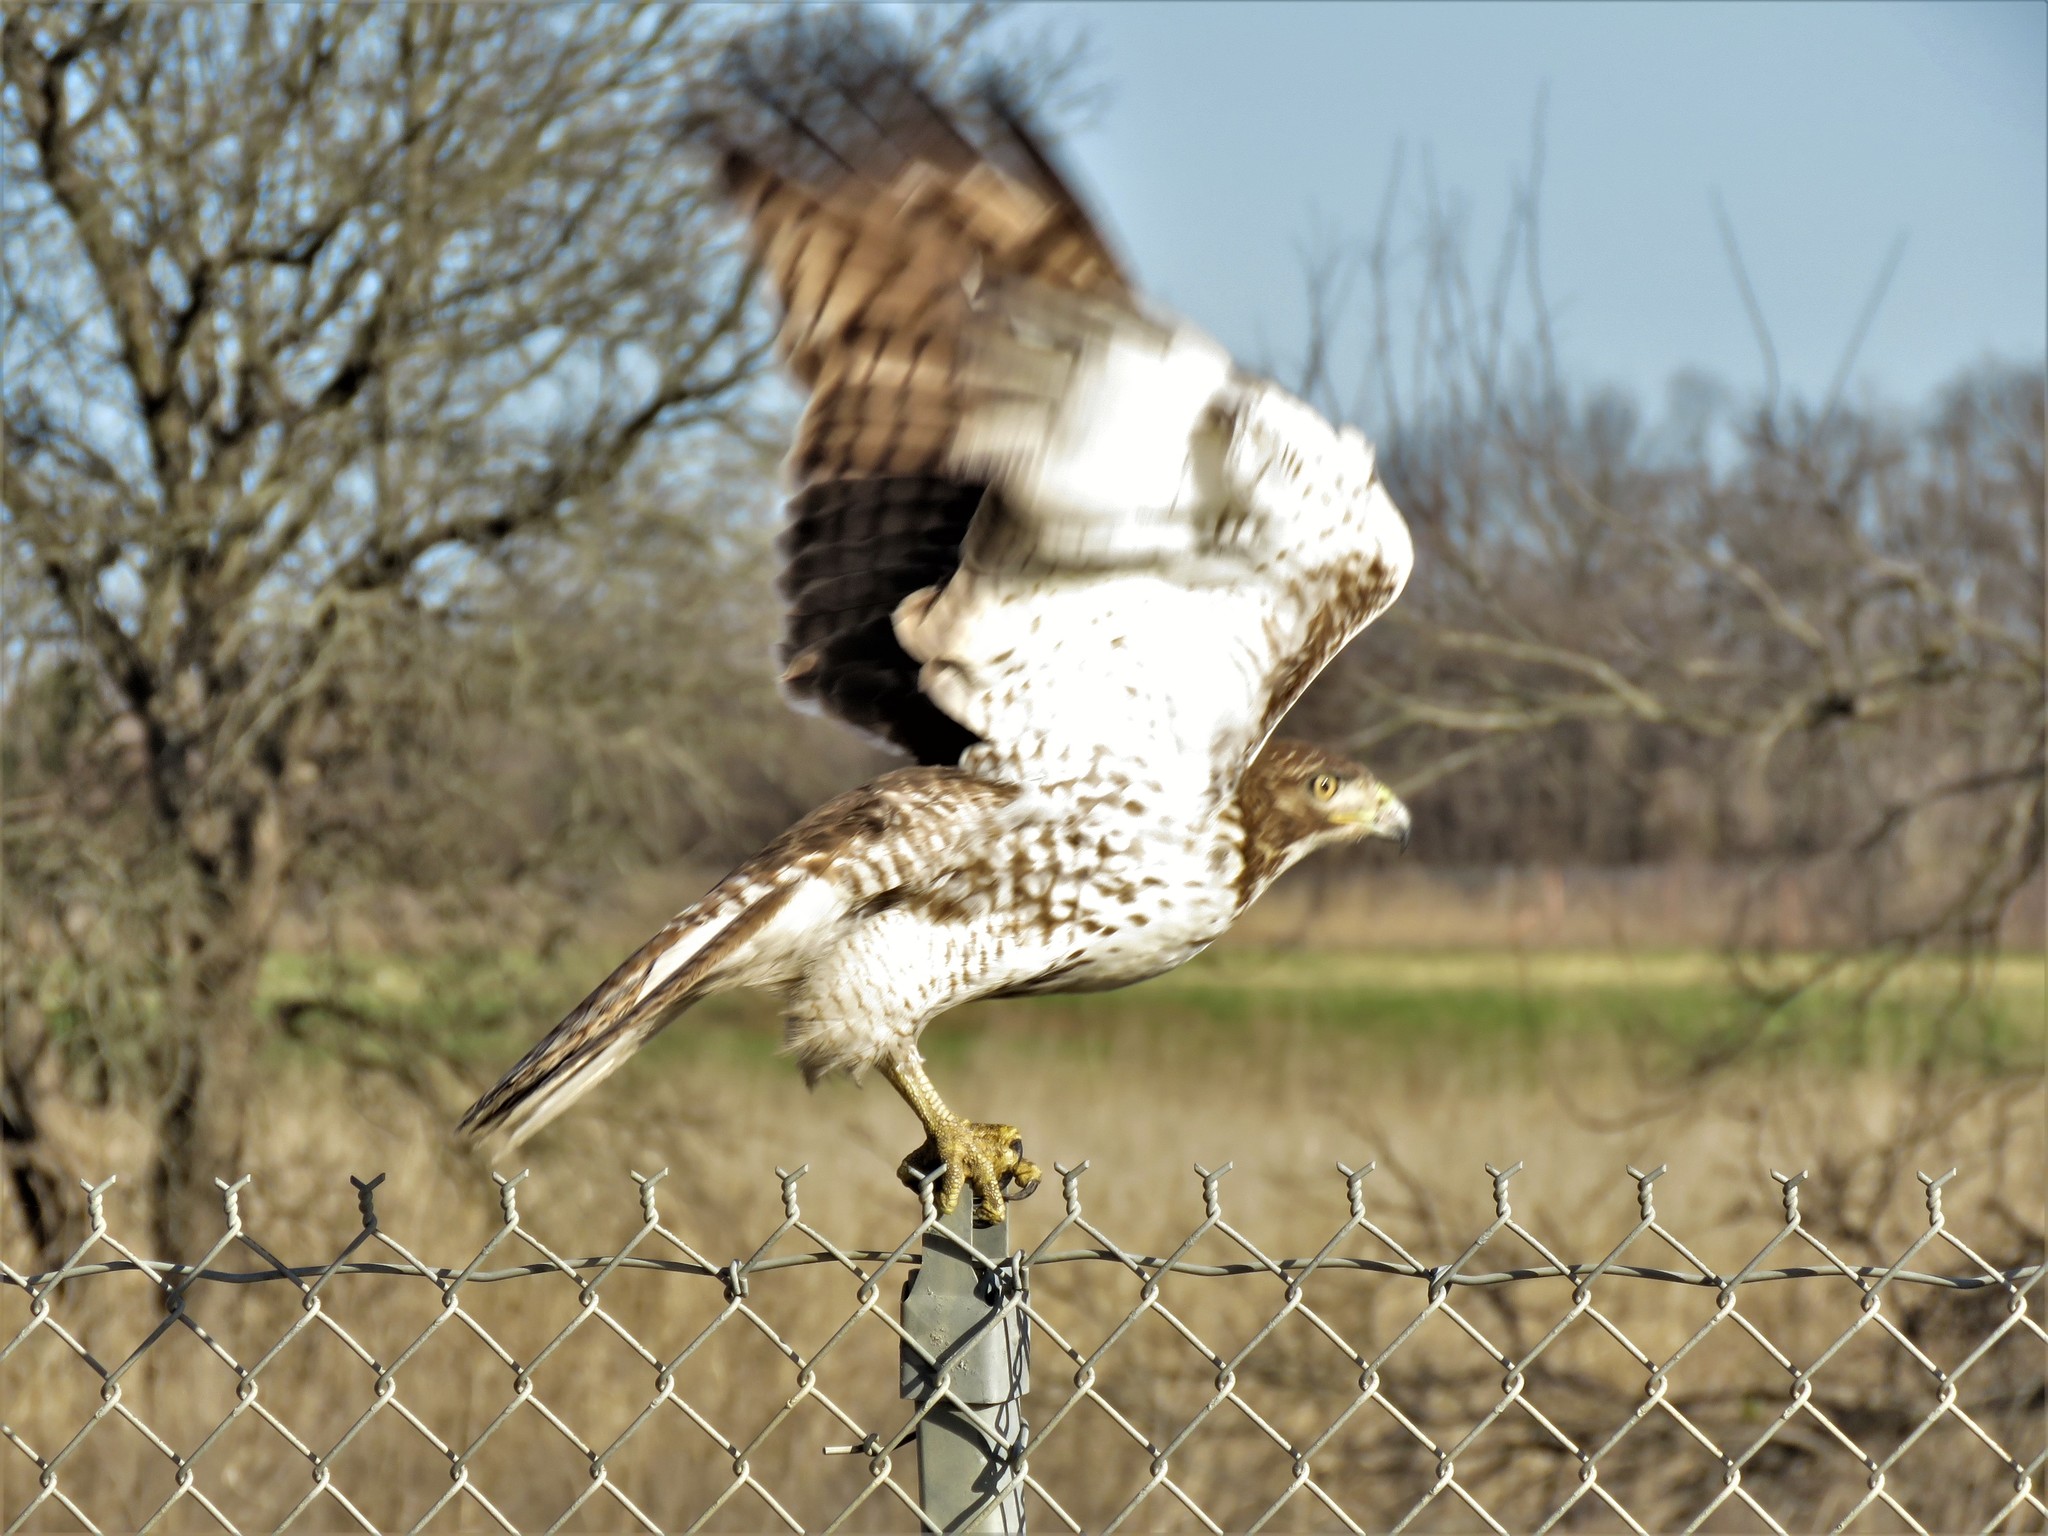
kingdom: Animalia
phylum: Chordata
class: Aves
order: Accipitriformes
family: Accipitridae
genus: Buteo
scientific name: Buteo jamaicensis
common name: Red-tailed hawk
